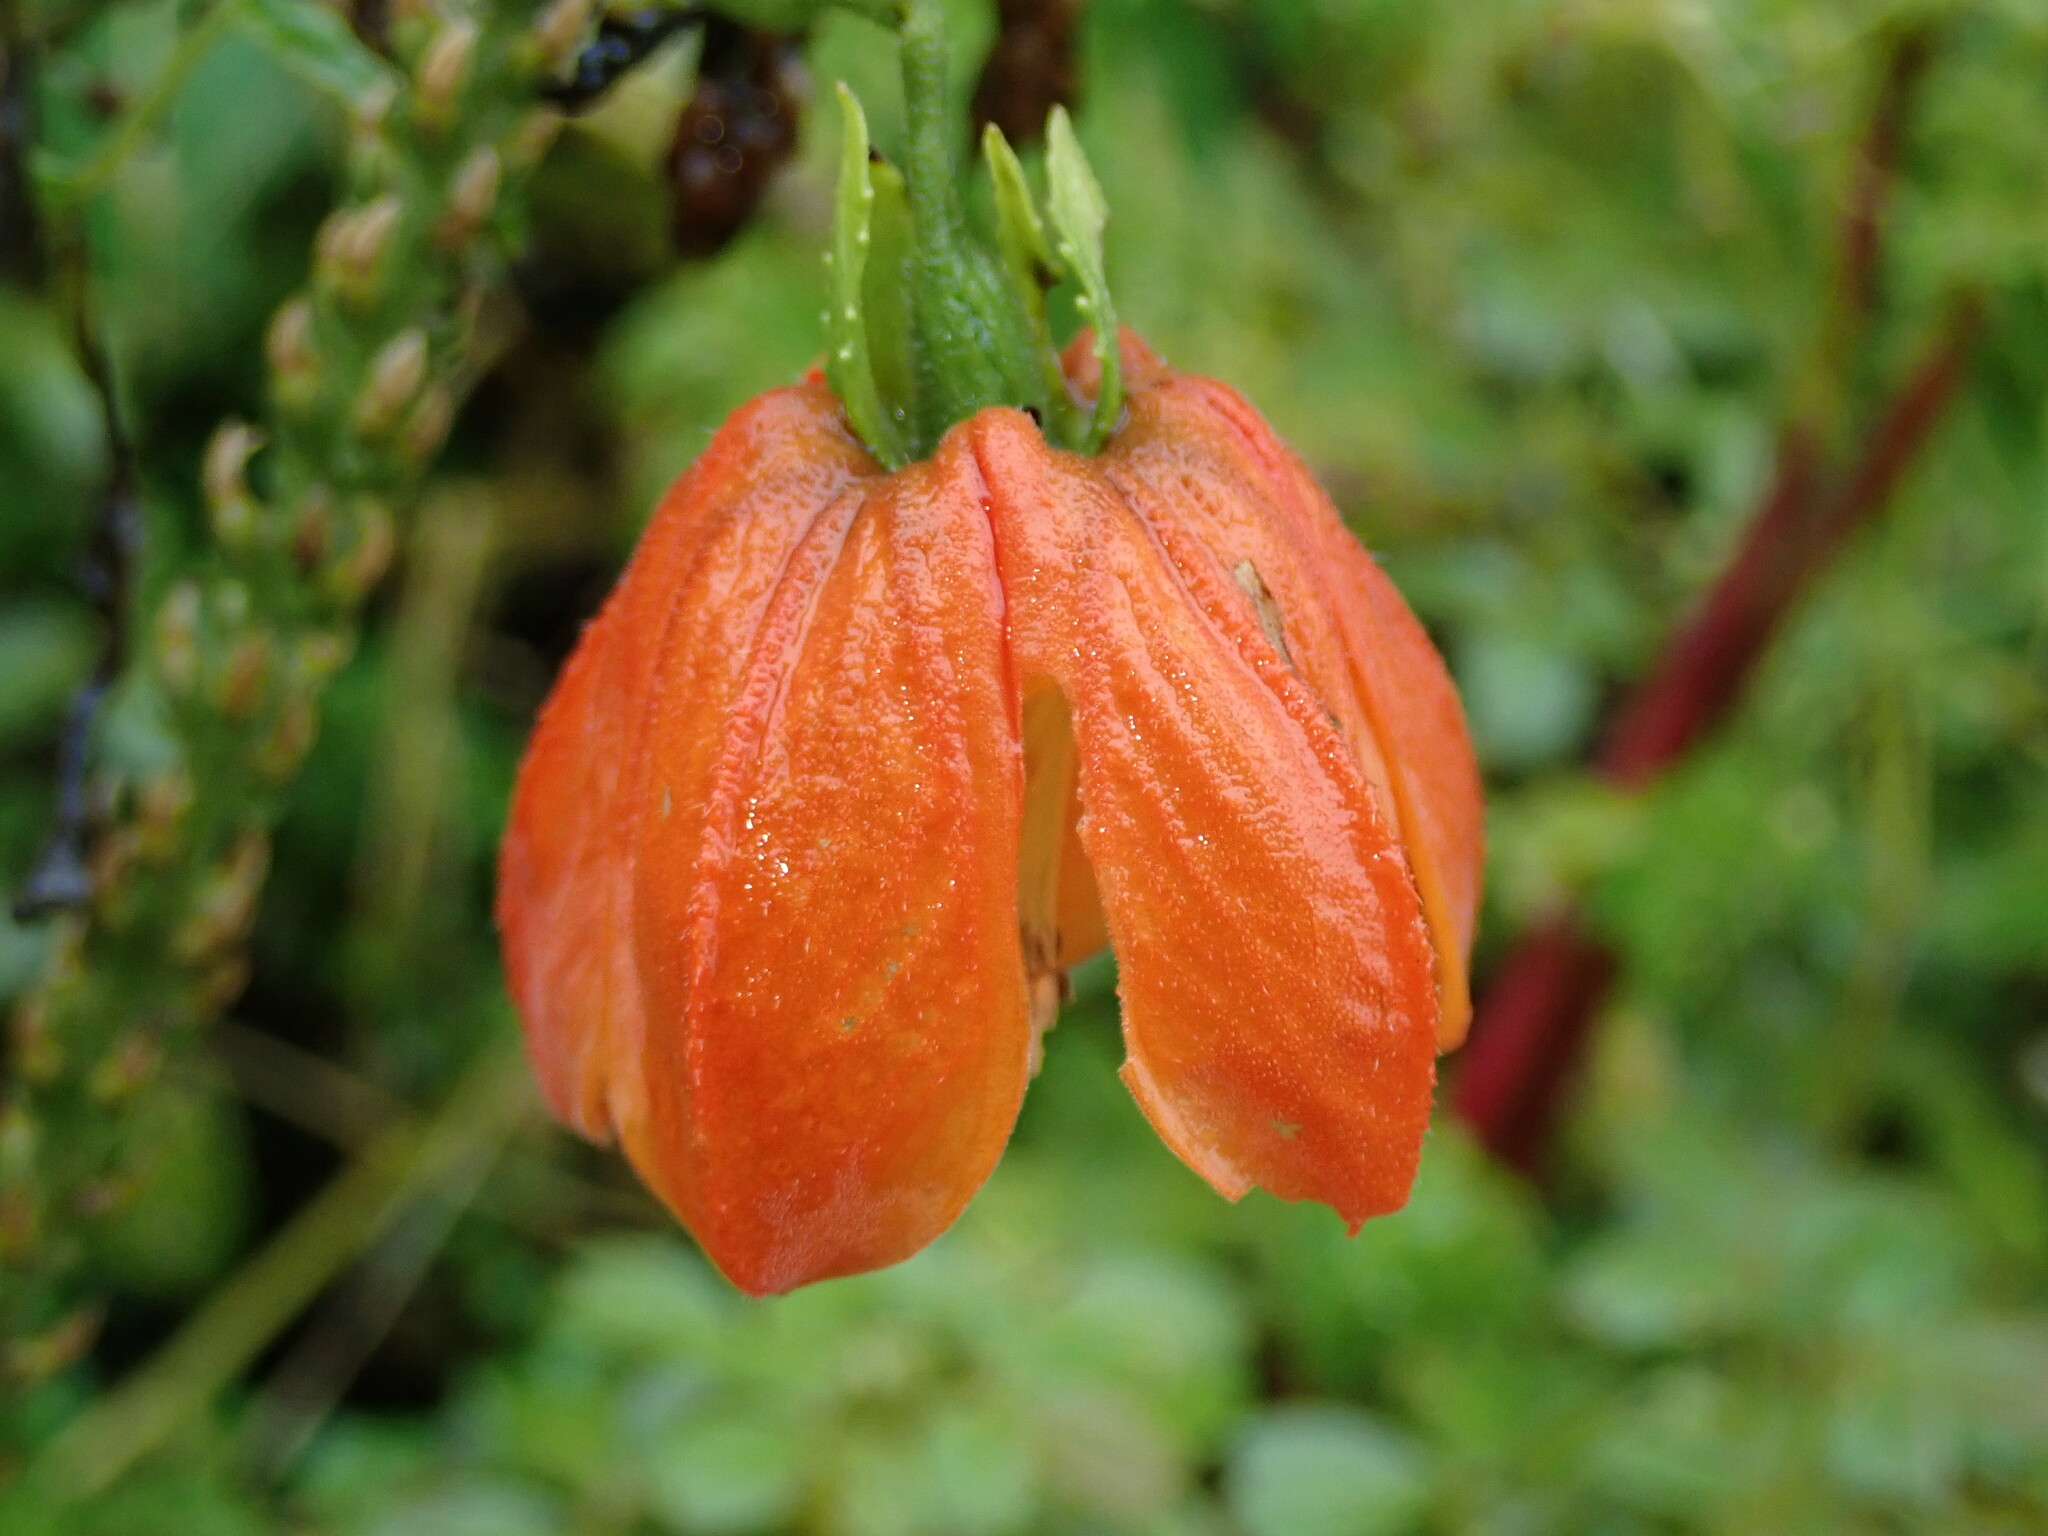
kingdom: Plantae
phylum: Tracheophyta
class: Magnoliopsida
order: Cornales
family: Loasaceae
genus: Caiophora
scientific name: Caiophora hibiscifolia
